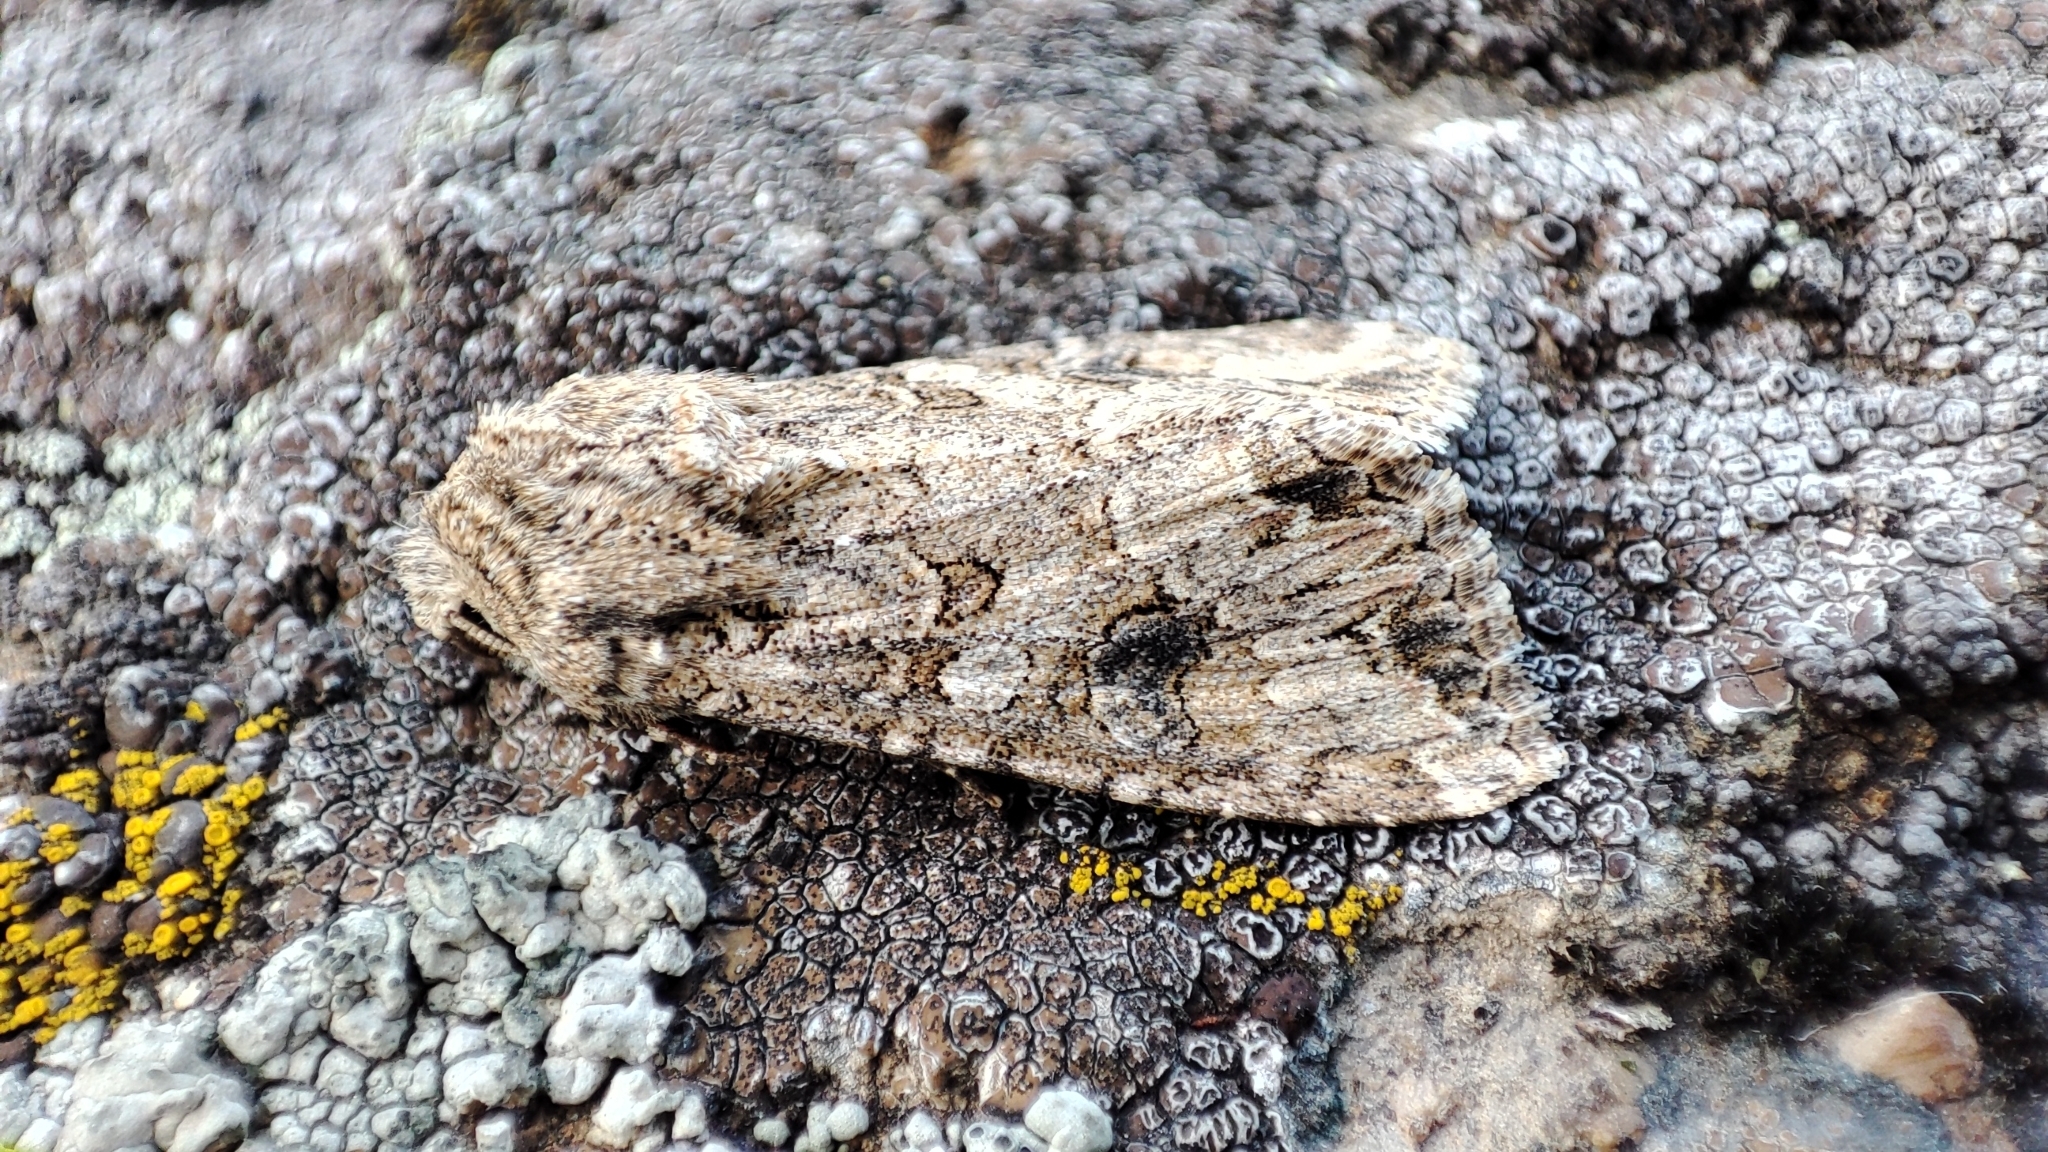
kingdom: Animalia
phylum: Arthropoda
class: Insecta
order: Lepidoptera
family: Noctuidae
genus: Anarta
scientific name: Anarta trifolii
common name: Clover cutworm moth
